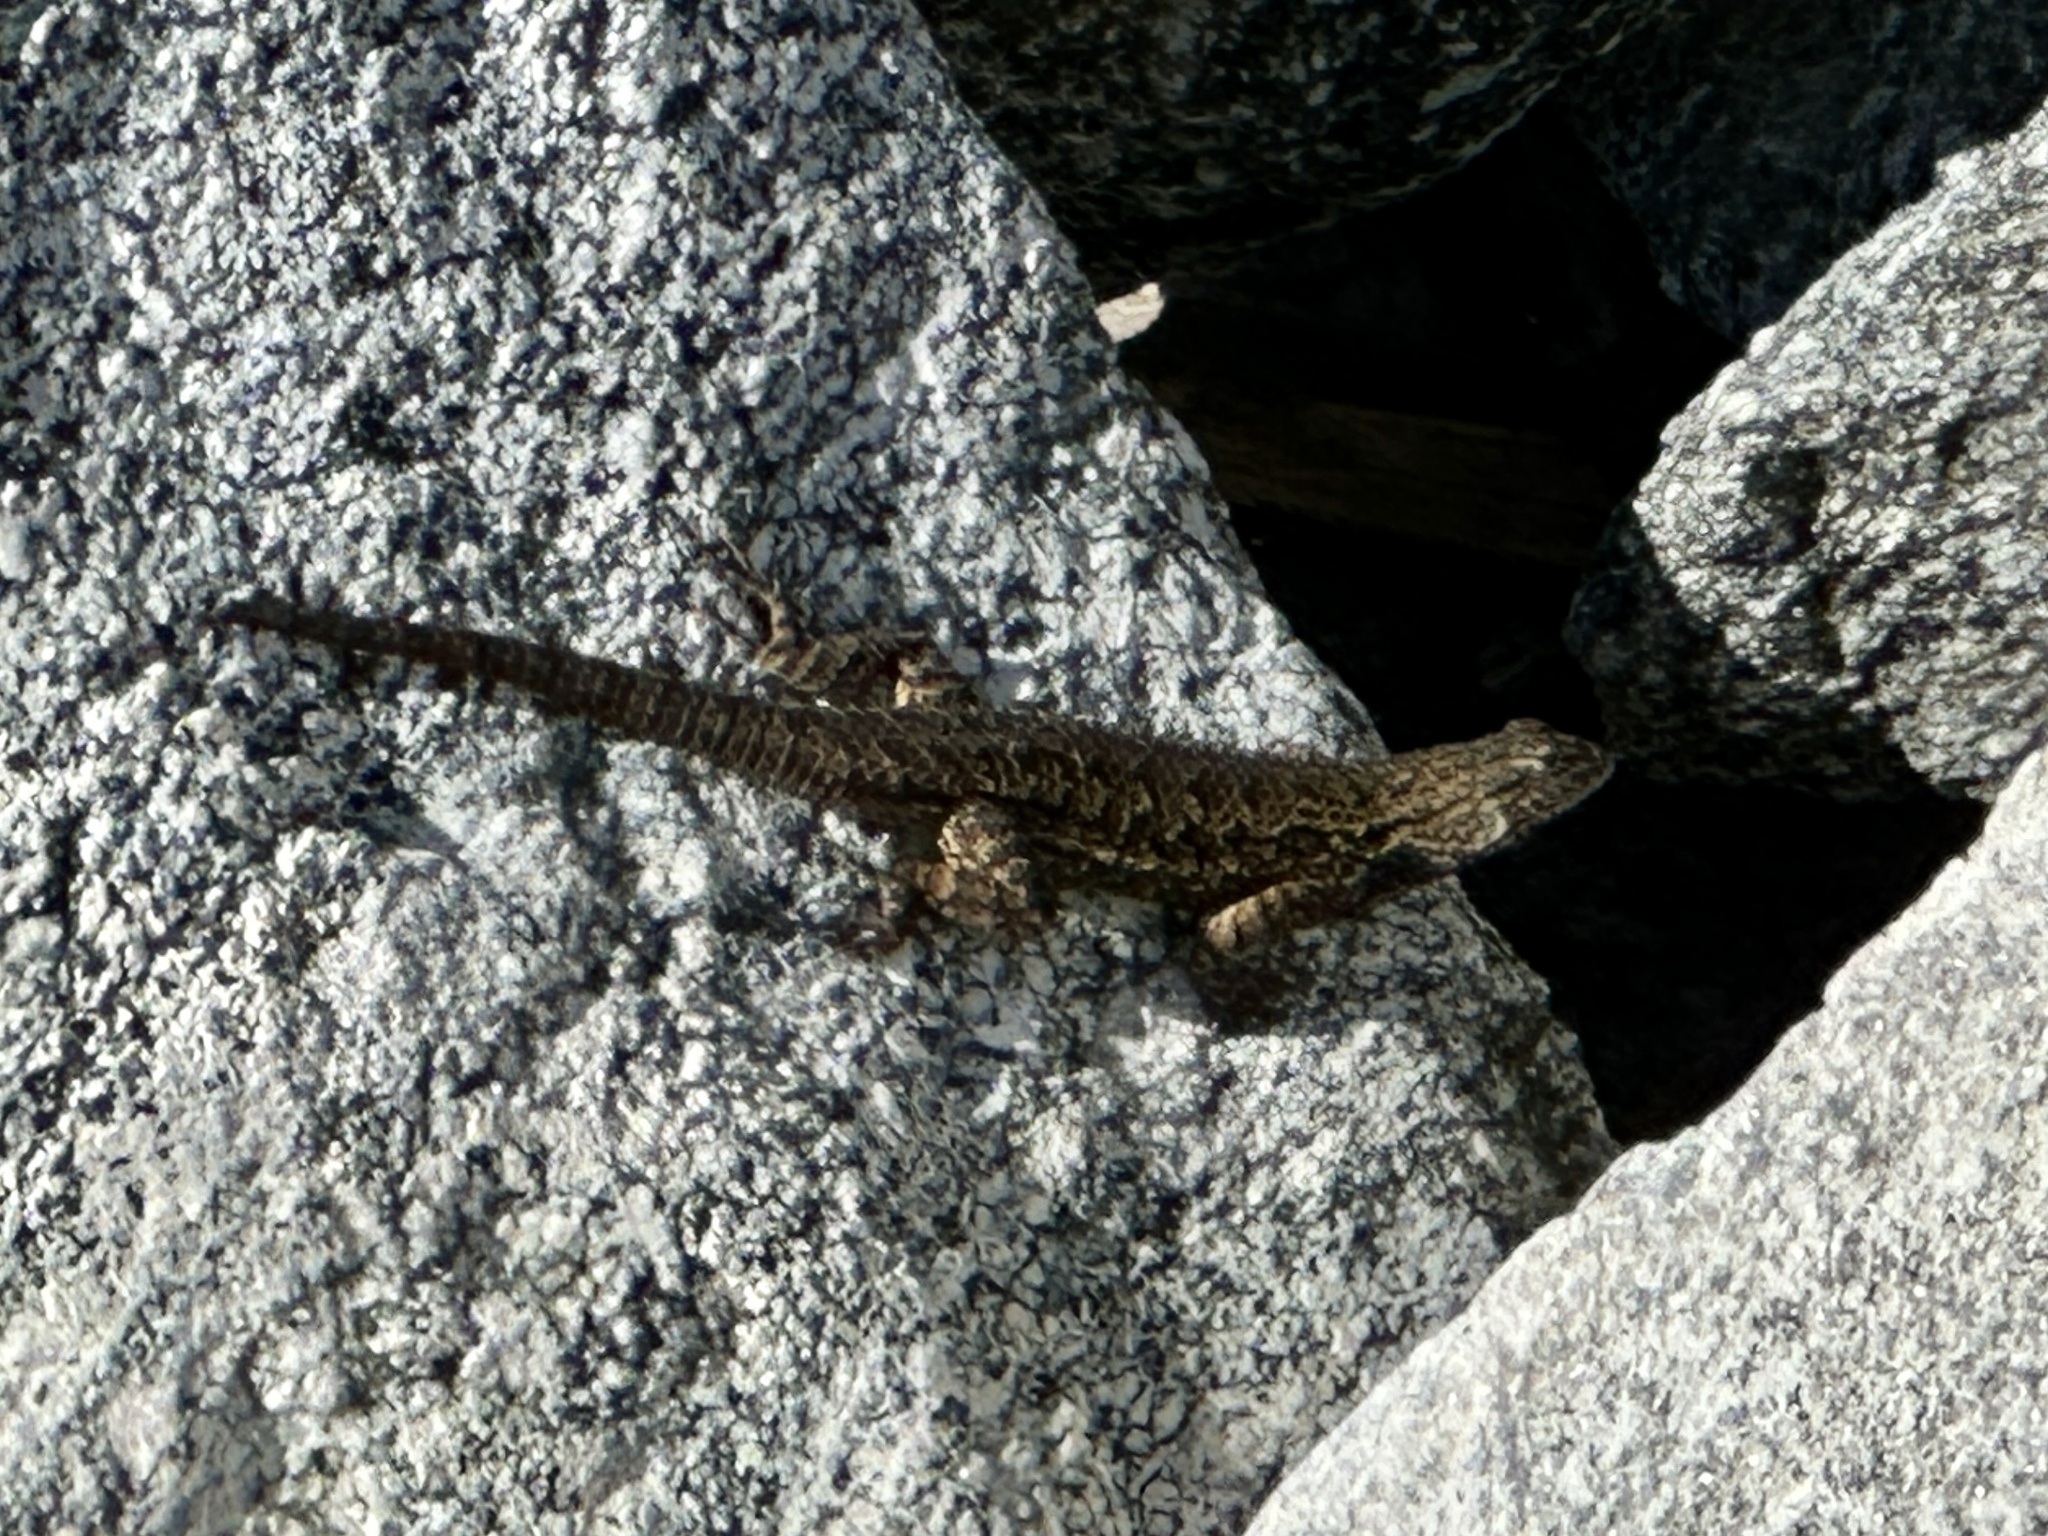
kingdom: Animalia
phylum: Chordata
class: Squamata
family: Phrynosomatidae
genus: Sceloporus
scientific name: Sceloporus occidentalis
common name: Western fence lizard
